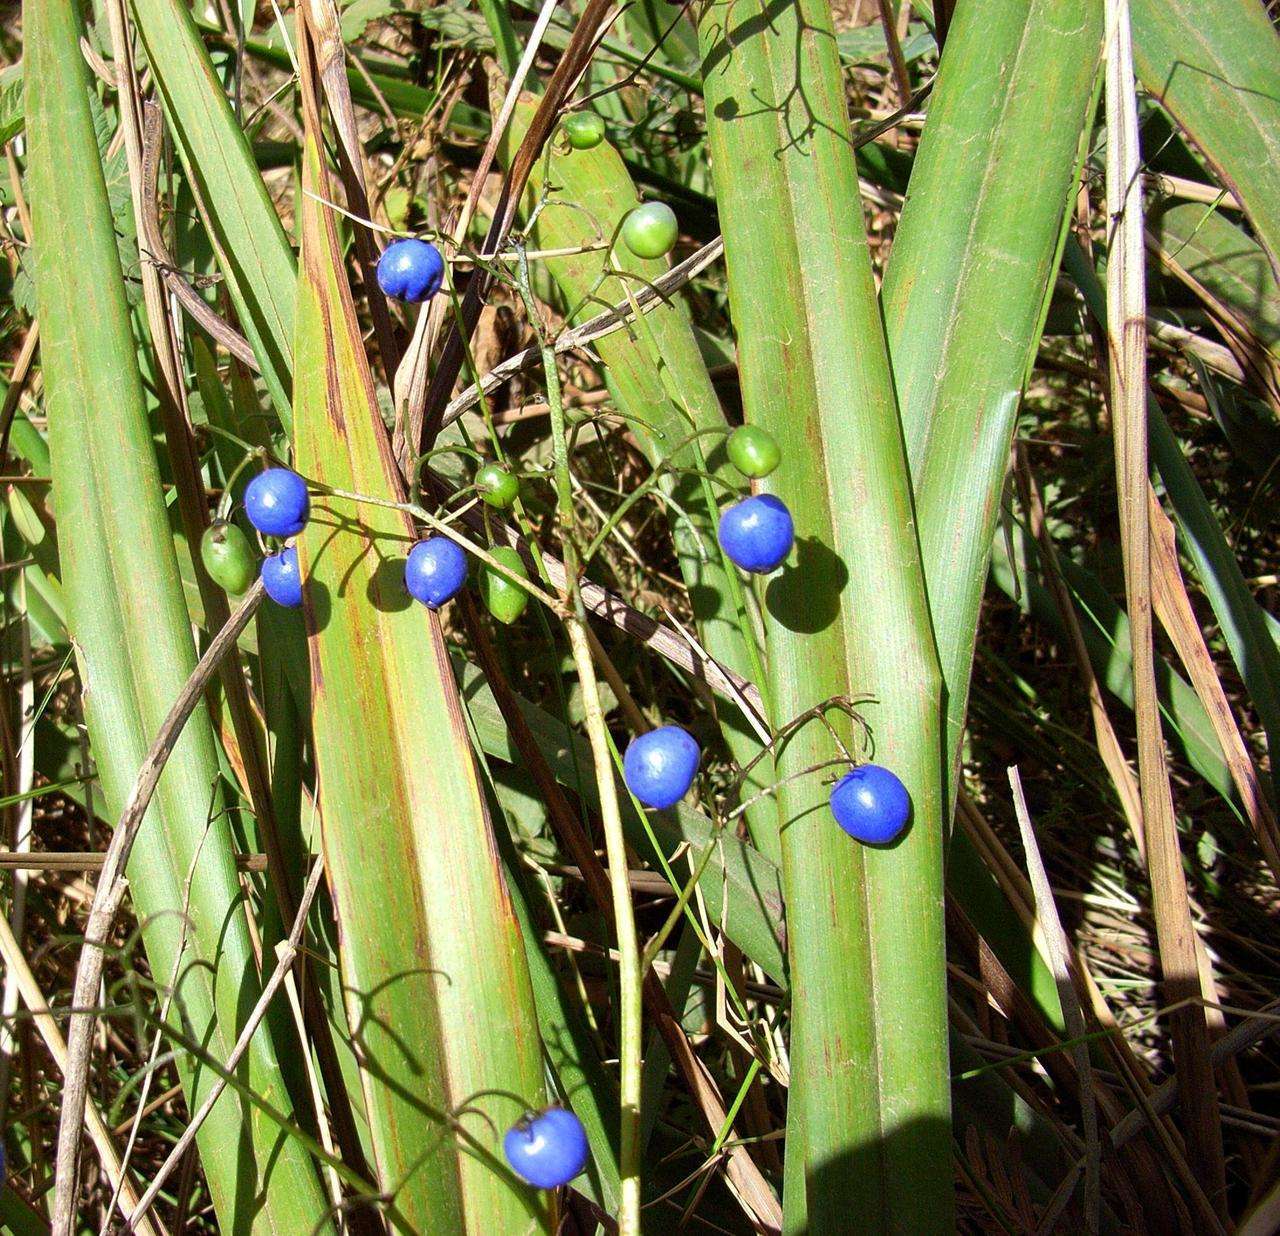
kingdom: Plantae
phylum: Tracheophyta
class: Liliopsida
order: Asparagales
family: Asphodelaceae
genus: Dianella
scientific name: Dianella tasmanica
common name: Tasman flax-lily
